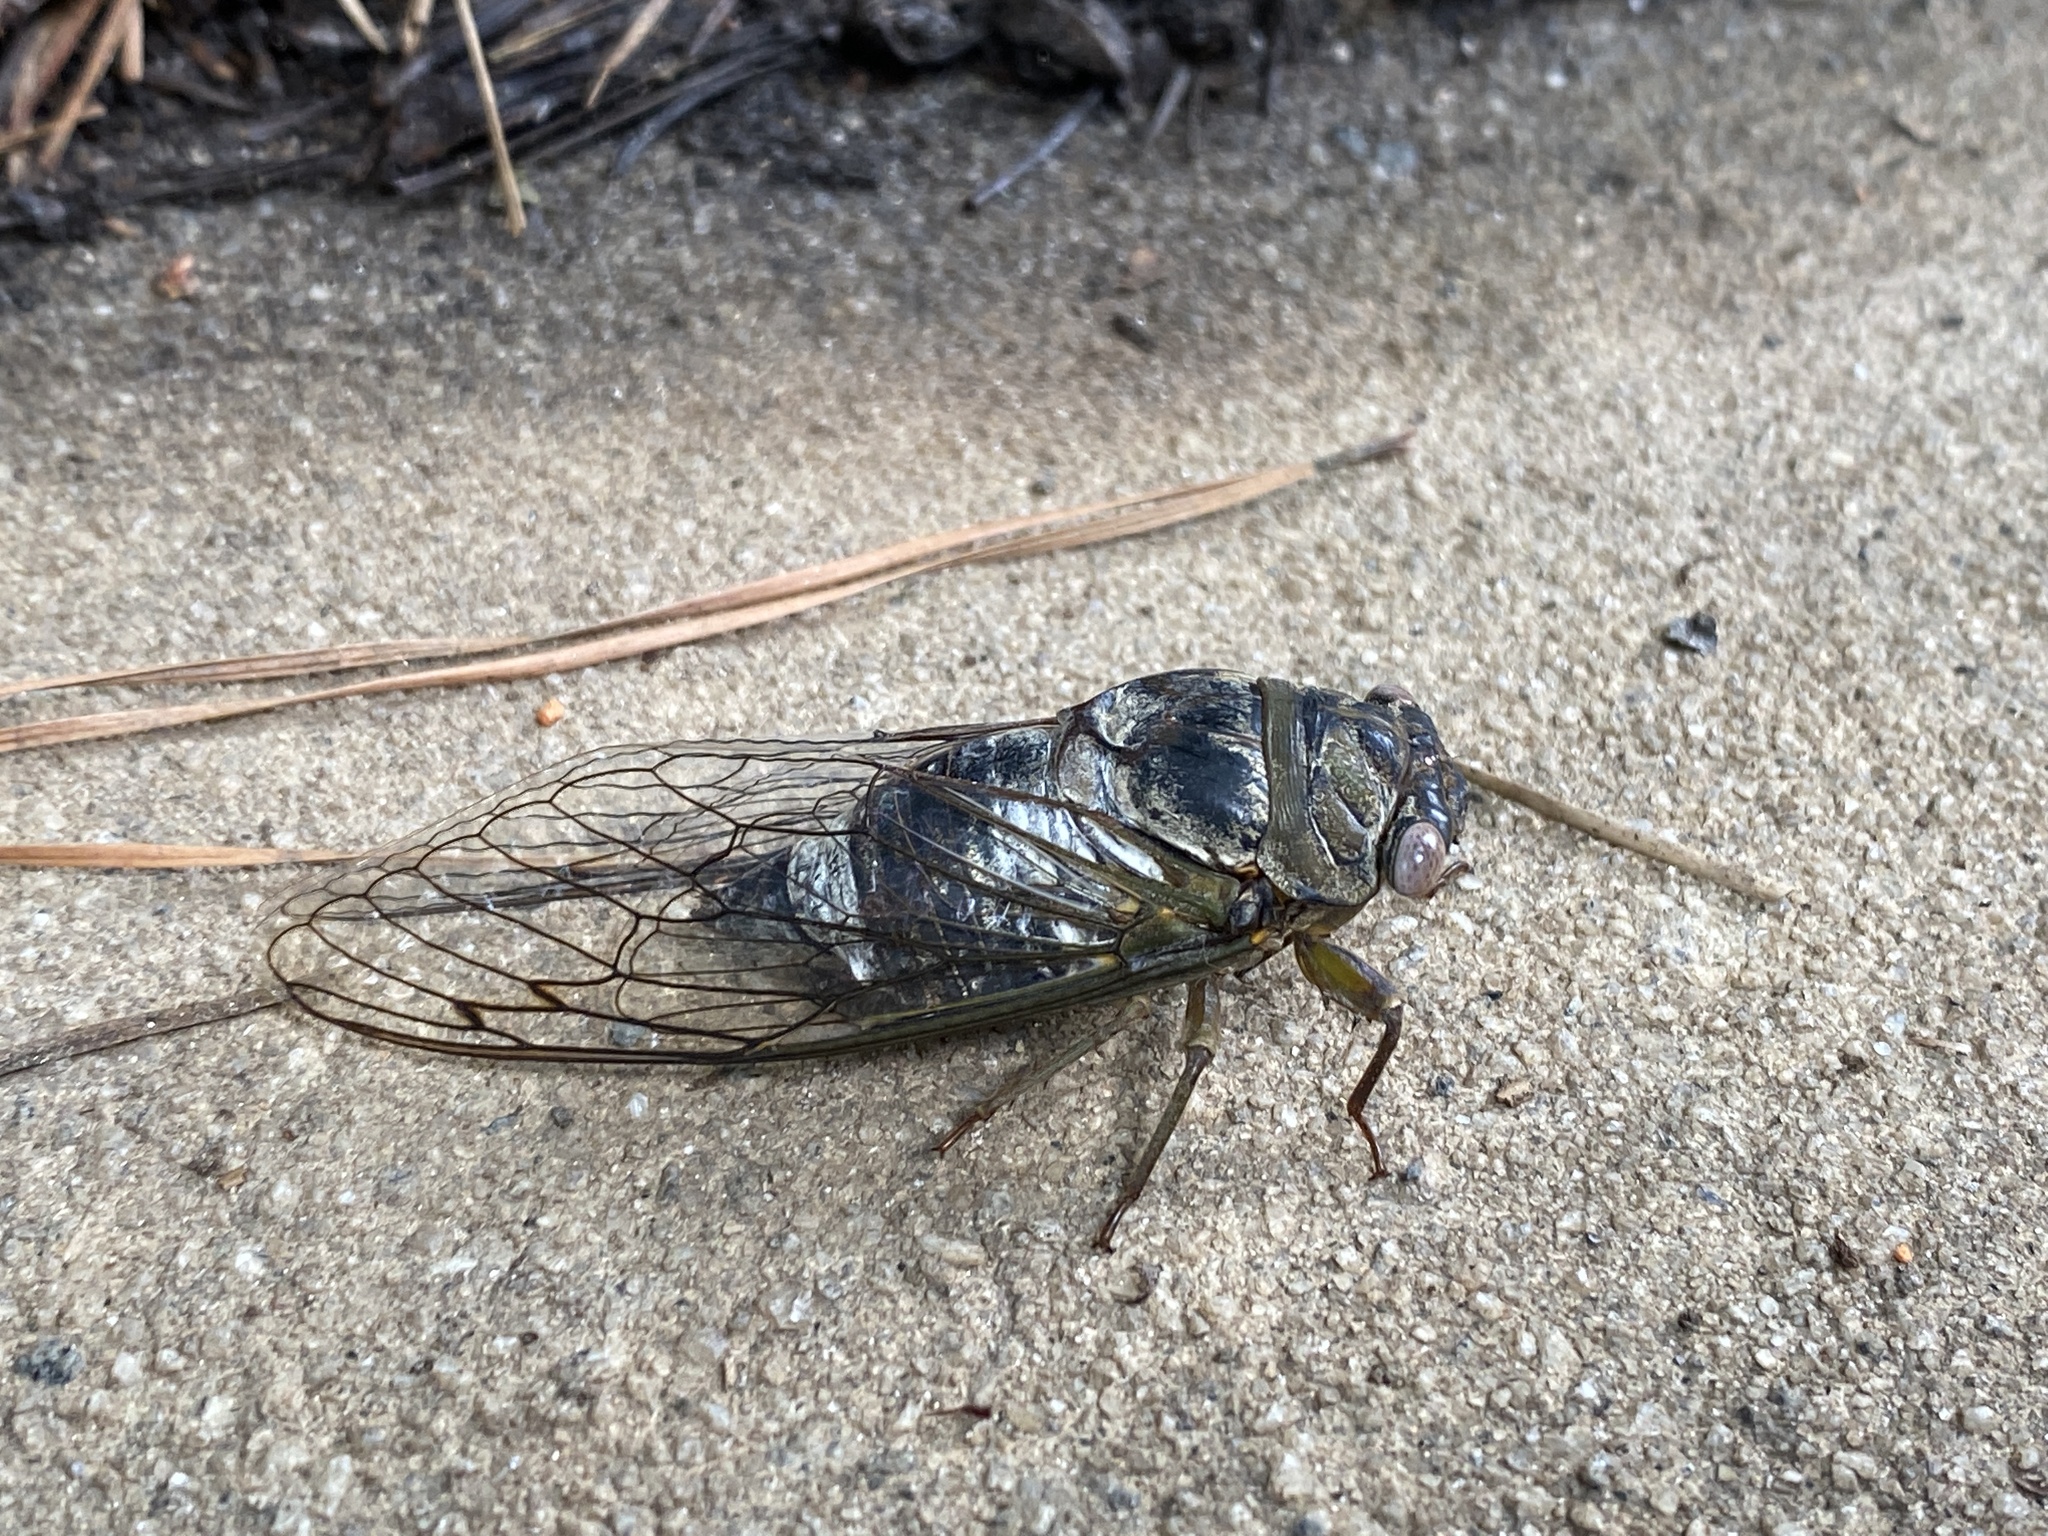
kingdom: Animalia
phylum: Arthropoda
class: Insecta
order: Hemiptera
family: Cicadidae
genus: Diceroprocta
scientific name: Diceroprocta grossa
